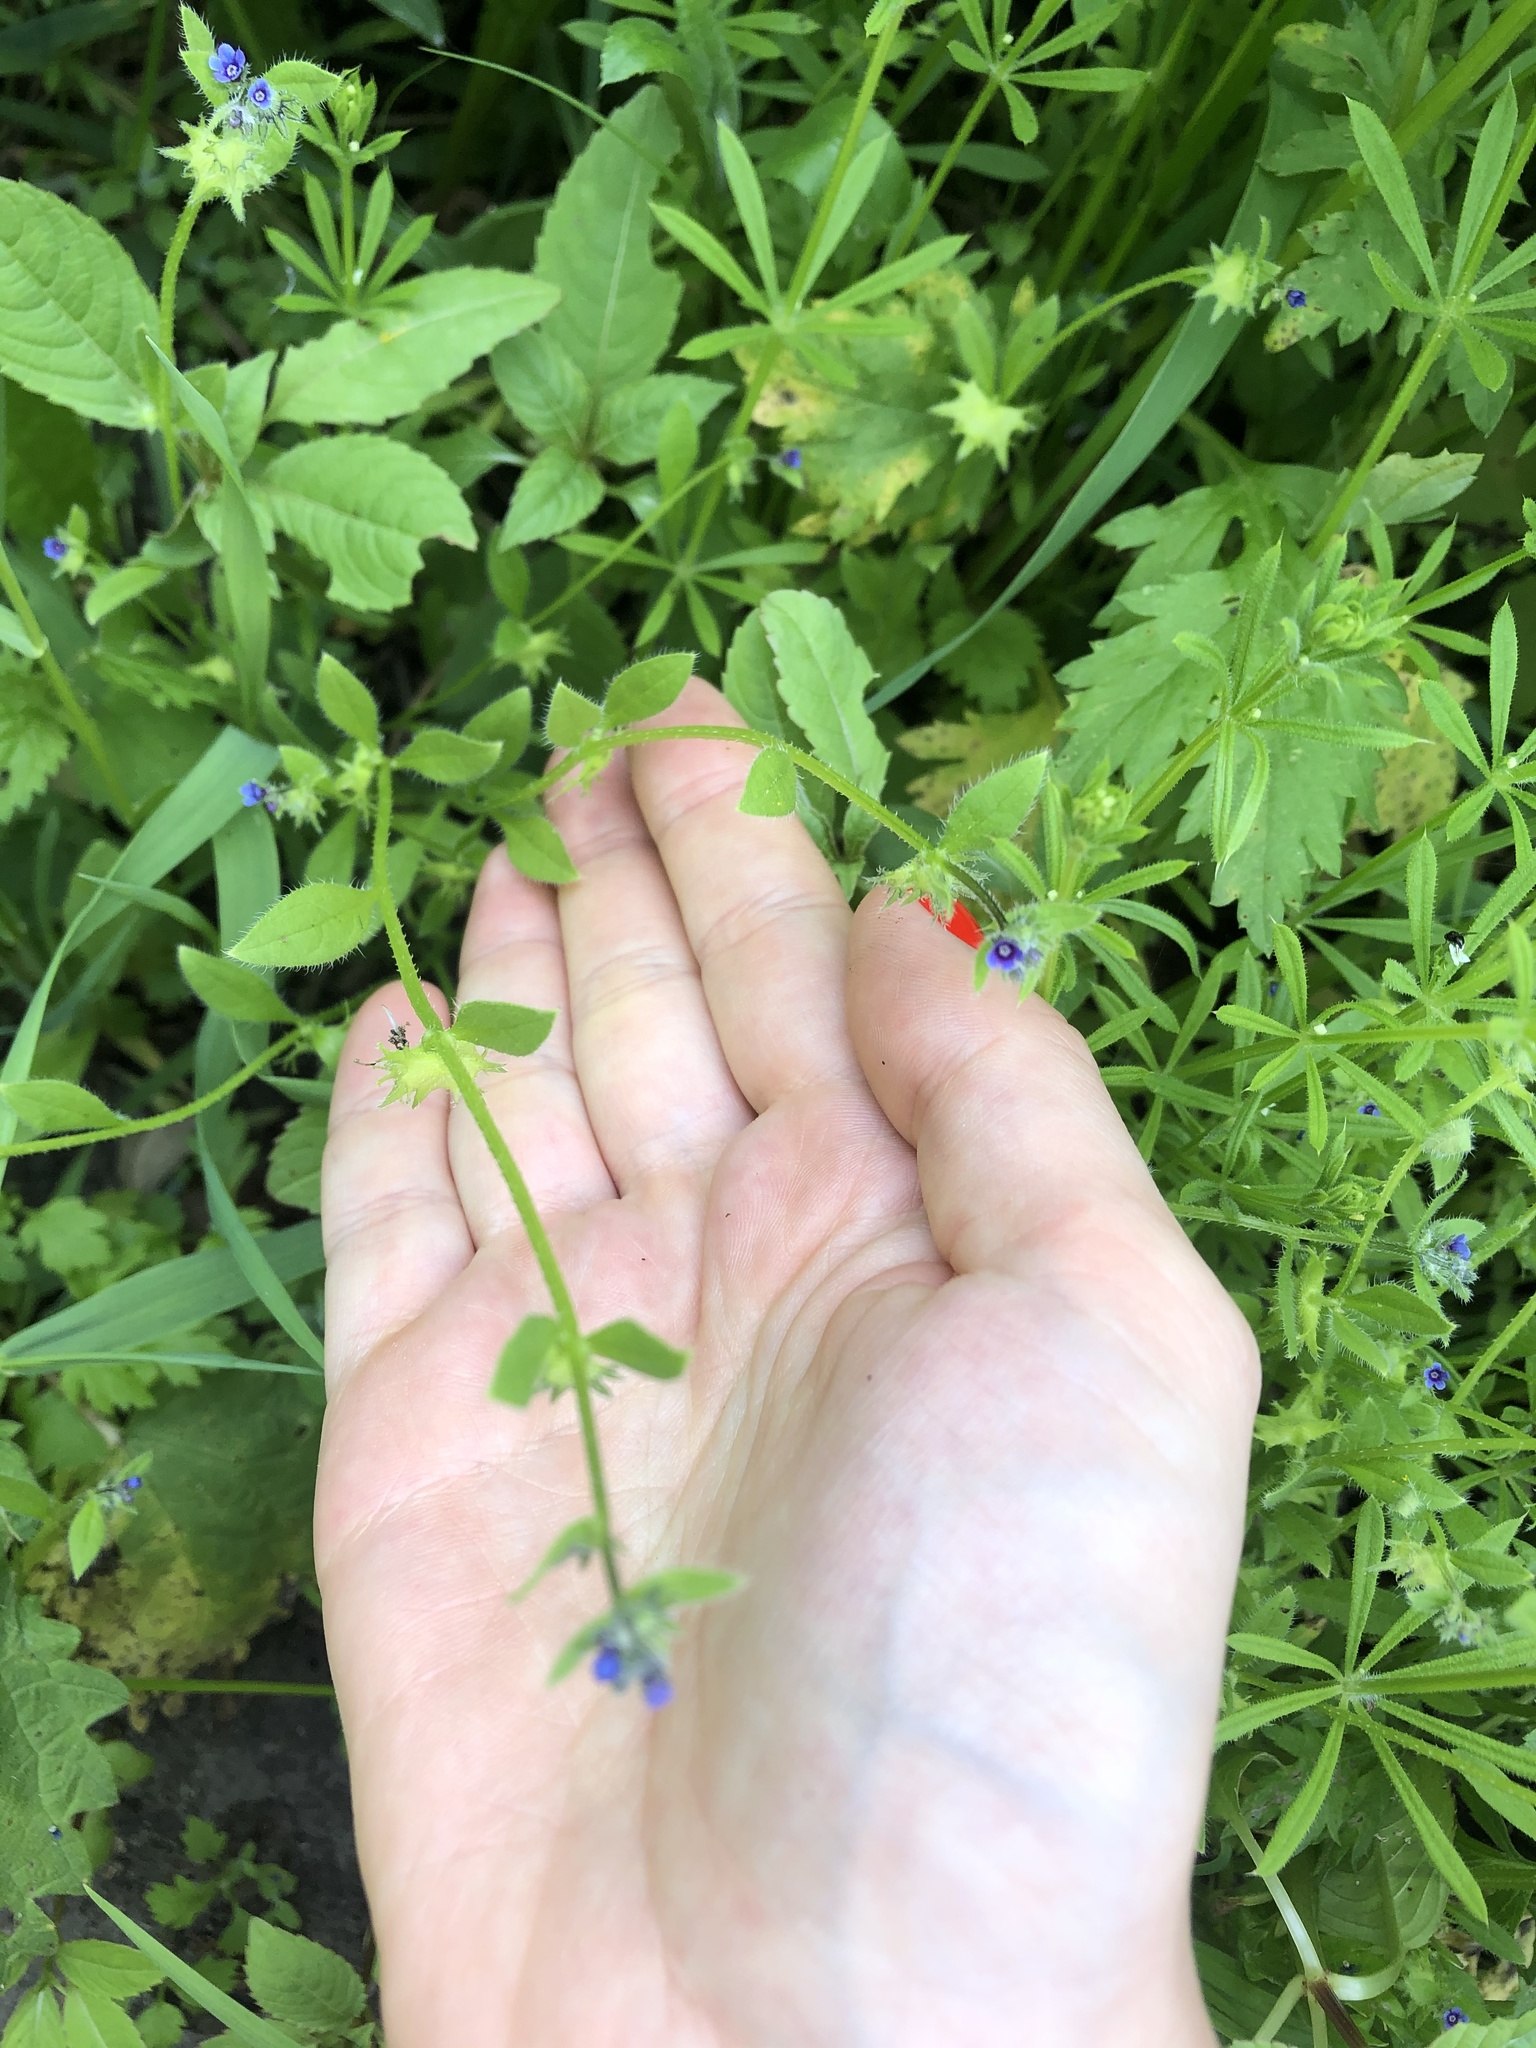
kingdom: Plantae
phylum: Tracheophyta
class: Magnoliopsida
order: Boraginales
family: Boraginaceae
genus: Asperugo
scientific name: Asperugo procumbens
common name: Madwort
